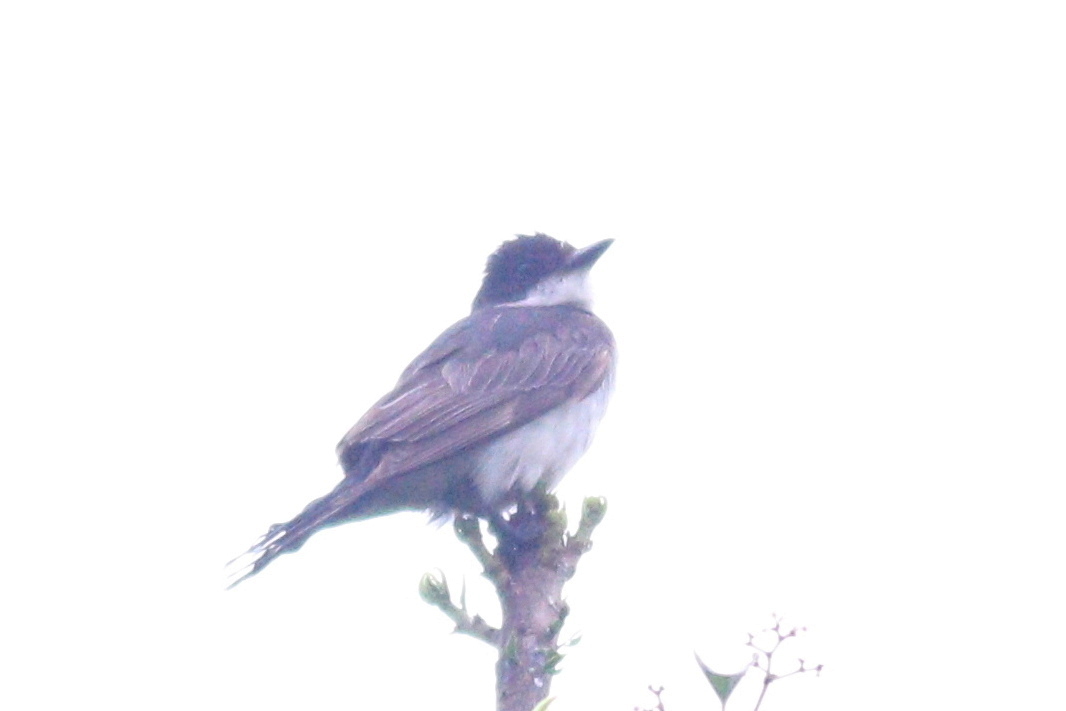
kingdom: Animalia
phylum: Chordata
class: Aves
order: Passeriformes
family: Tyrannidae
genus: Tyrannus
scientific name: Tyrannus tyrannus
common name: Eastern kingbird
